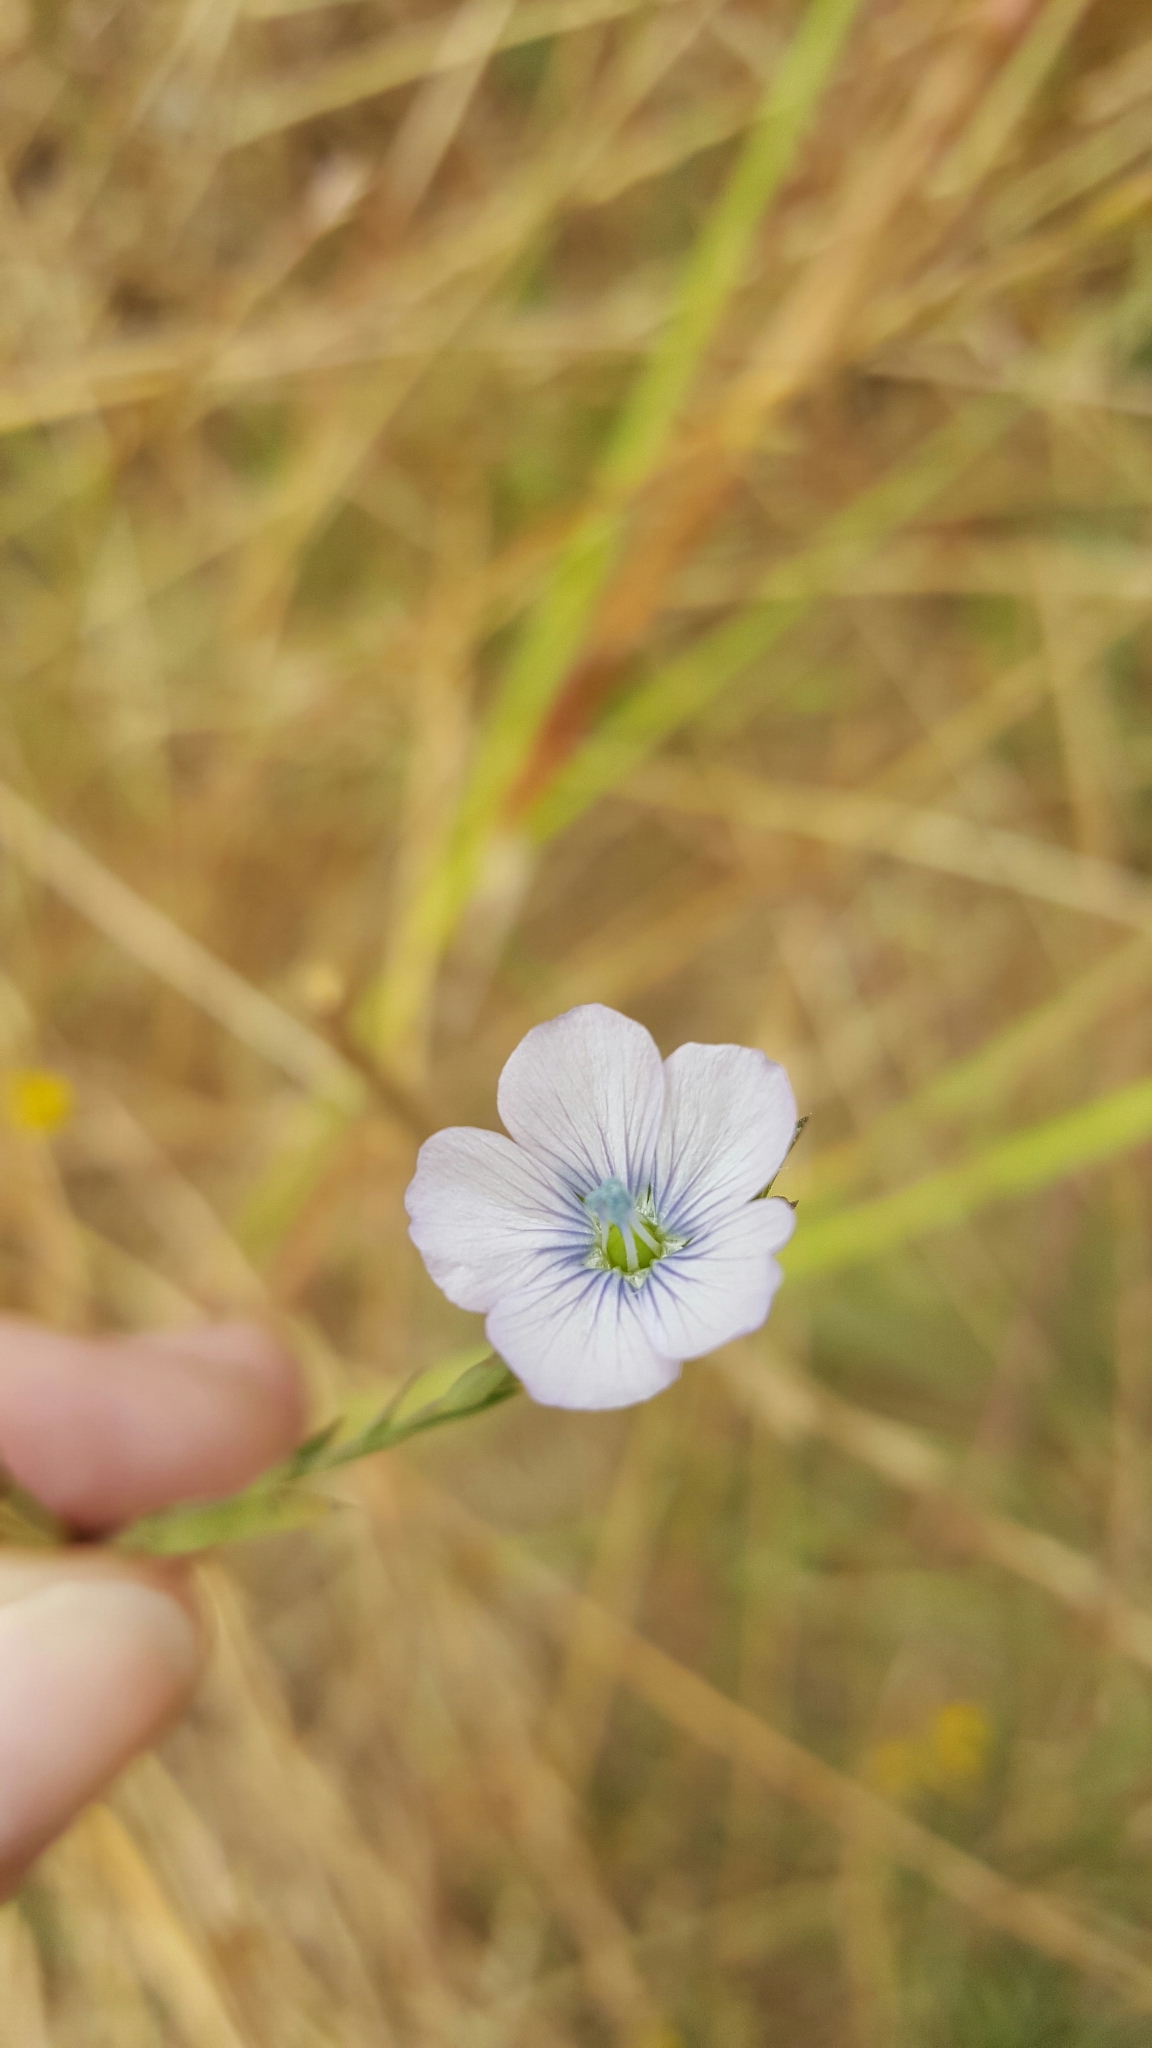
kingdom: Plantae
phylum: Tracheophyta
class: Magnoliopsida
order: Malpighiales
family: Linaceae
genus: Linum
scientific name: Linum bienne
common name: Pale flax
